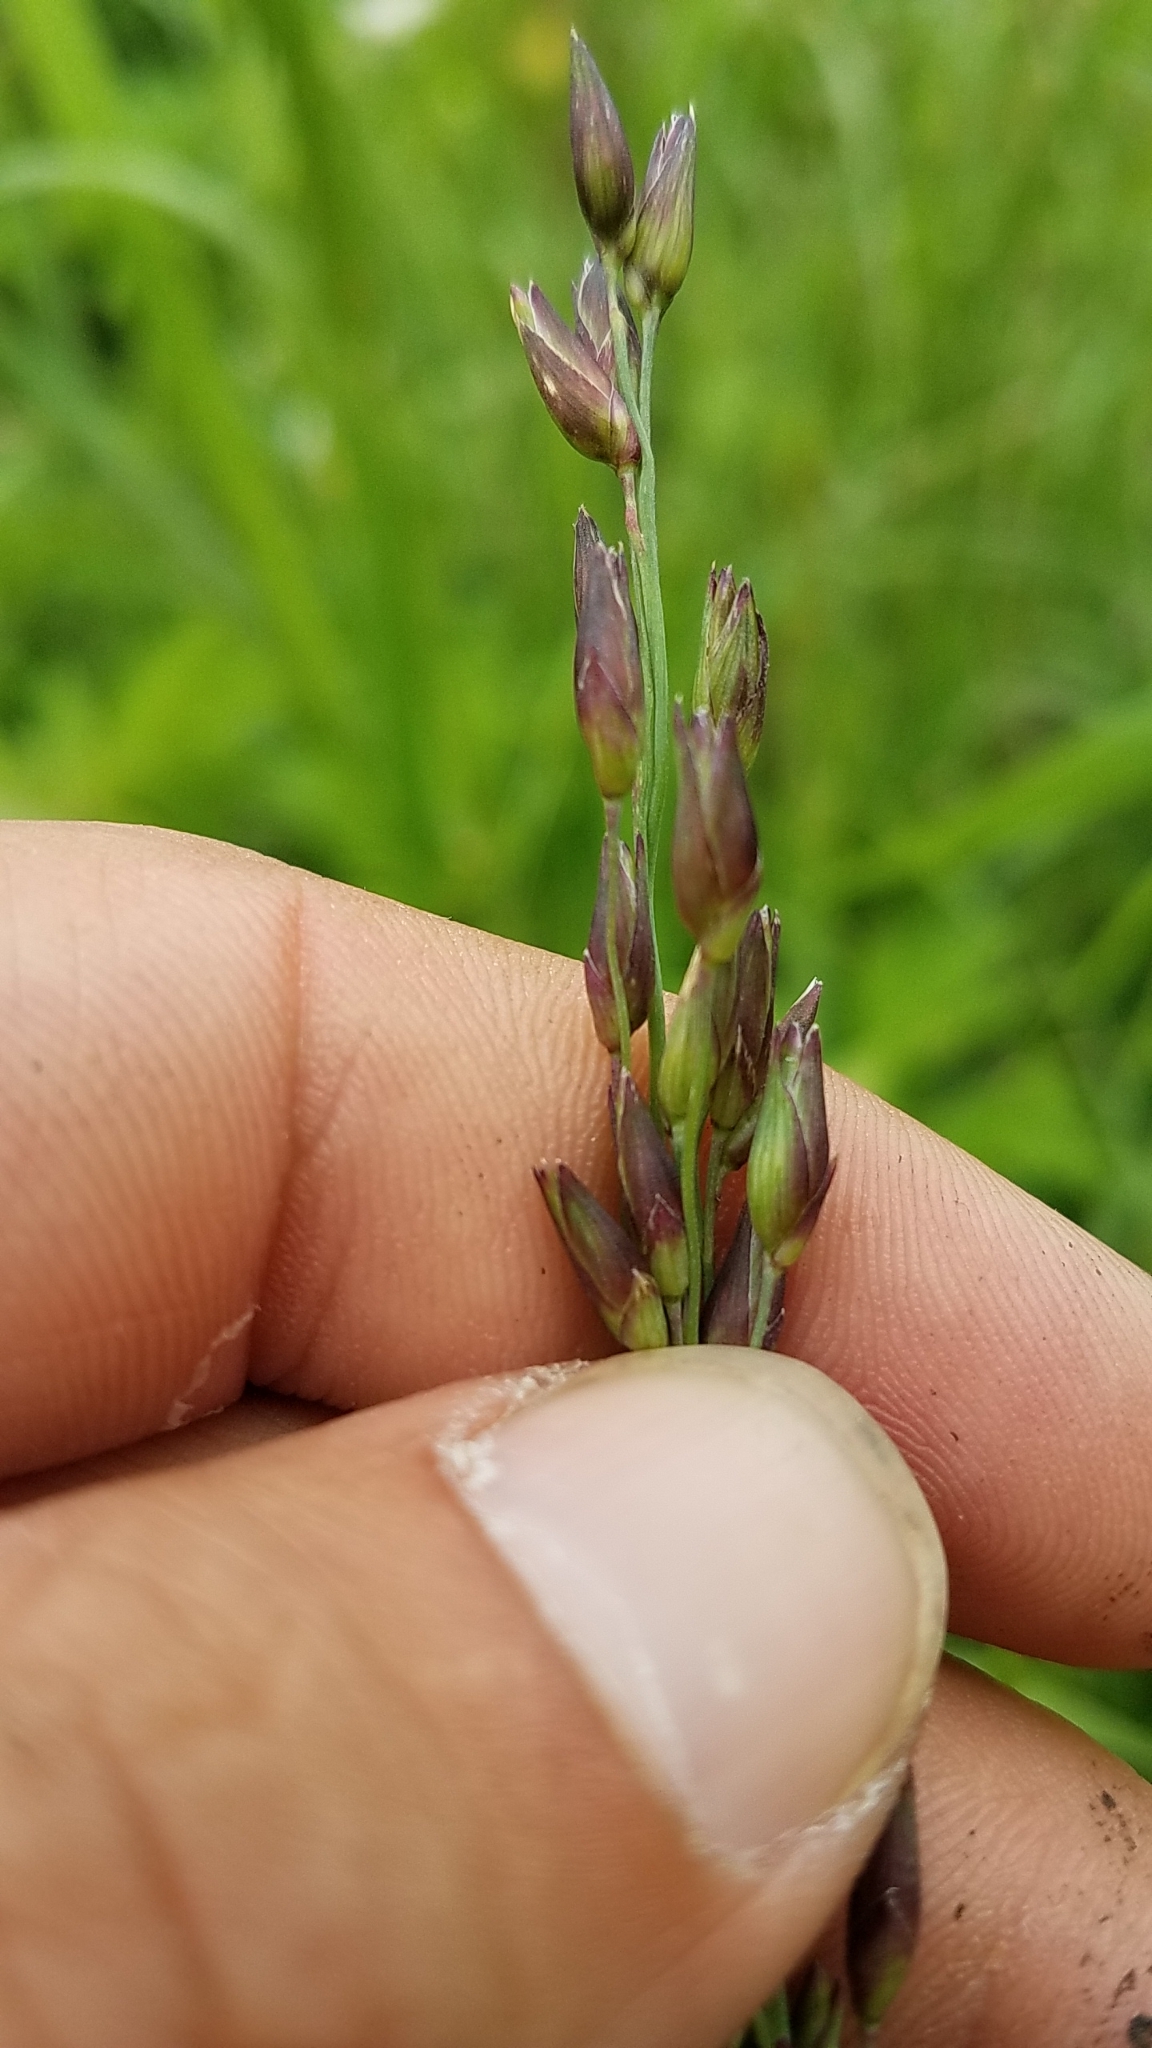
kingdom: Plantae
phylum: Tracheophyta
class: Liliopsida
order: Poales
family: Poaceae
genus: Panicum
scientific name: Panicum virgatum
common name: Switchgrass
